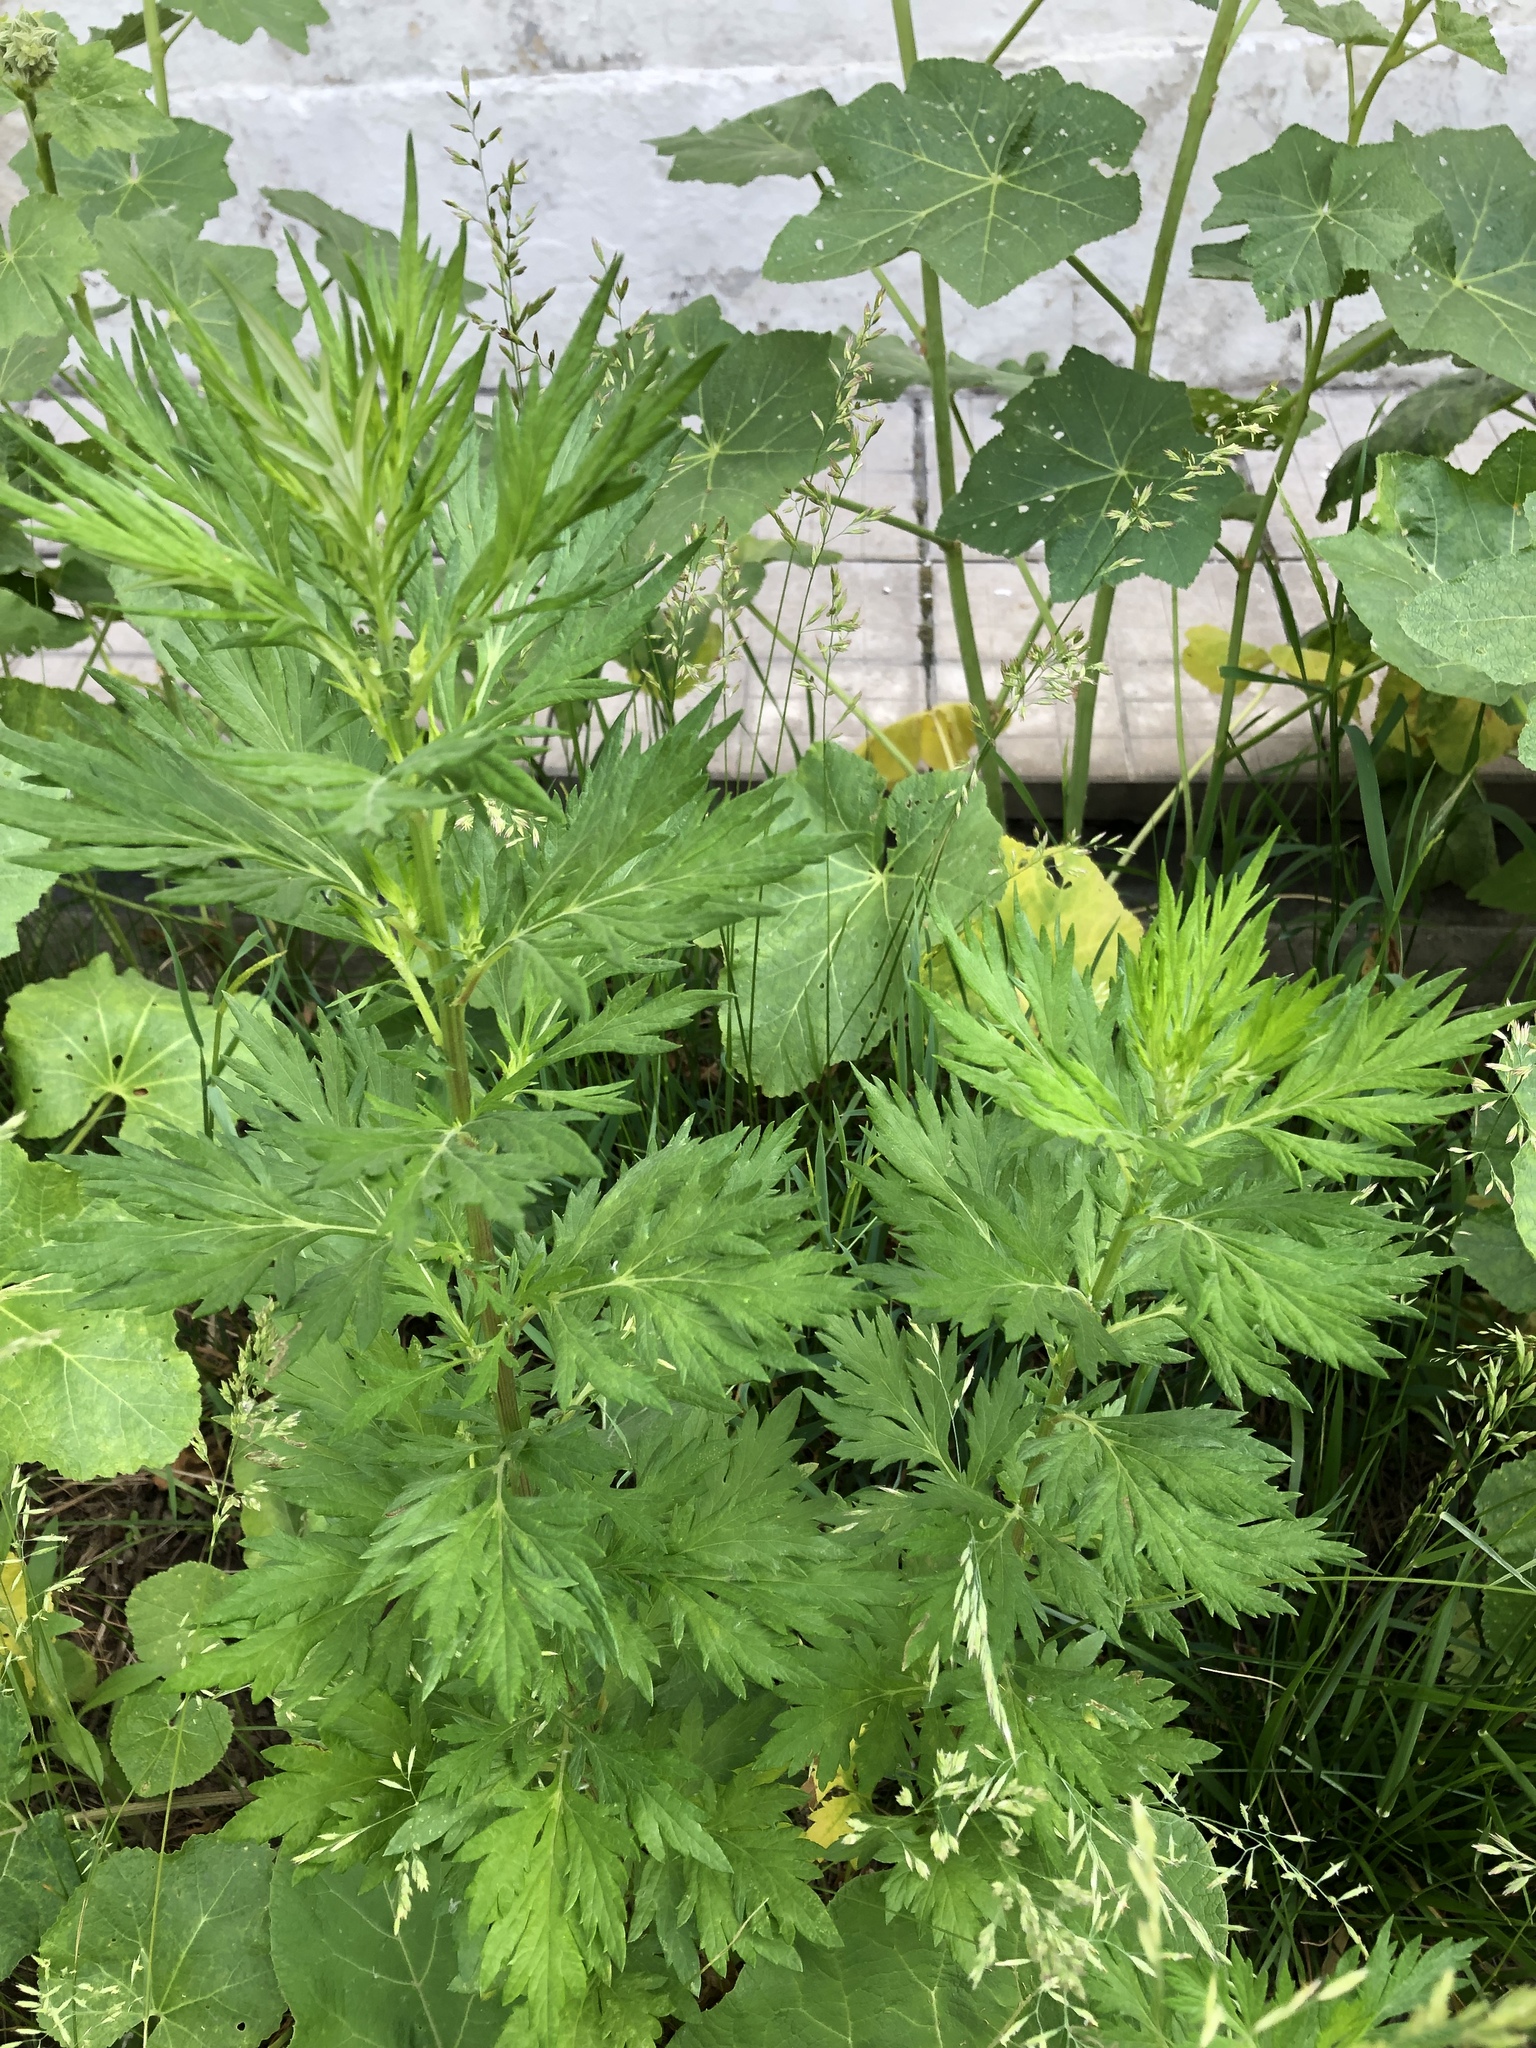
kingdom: Plantae
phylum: Tracheophyta
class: Magnoliopsida
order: Asterales
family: Asteraceae
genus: Artemisia
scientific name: Artemisia vulgaris
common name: Mugwort
